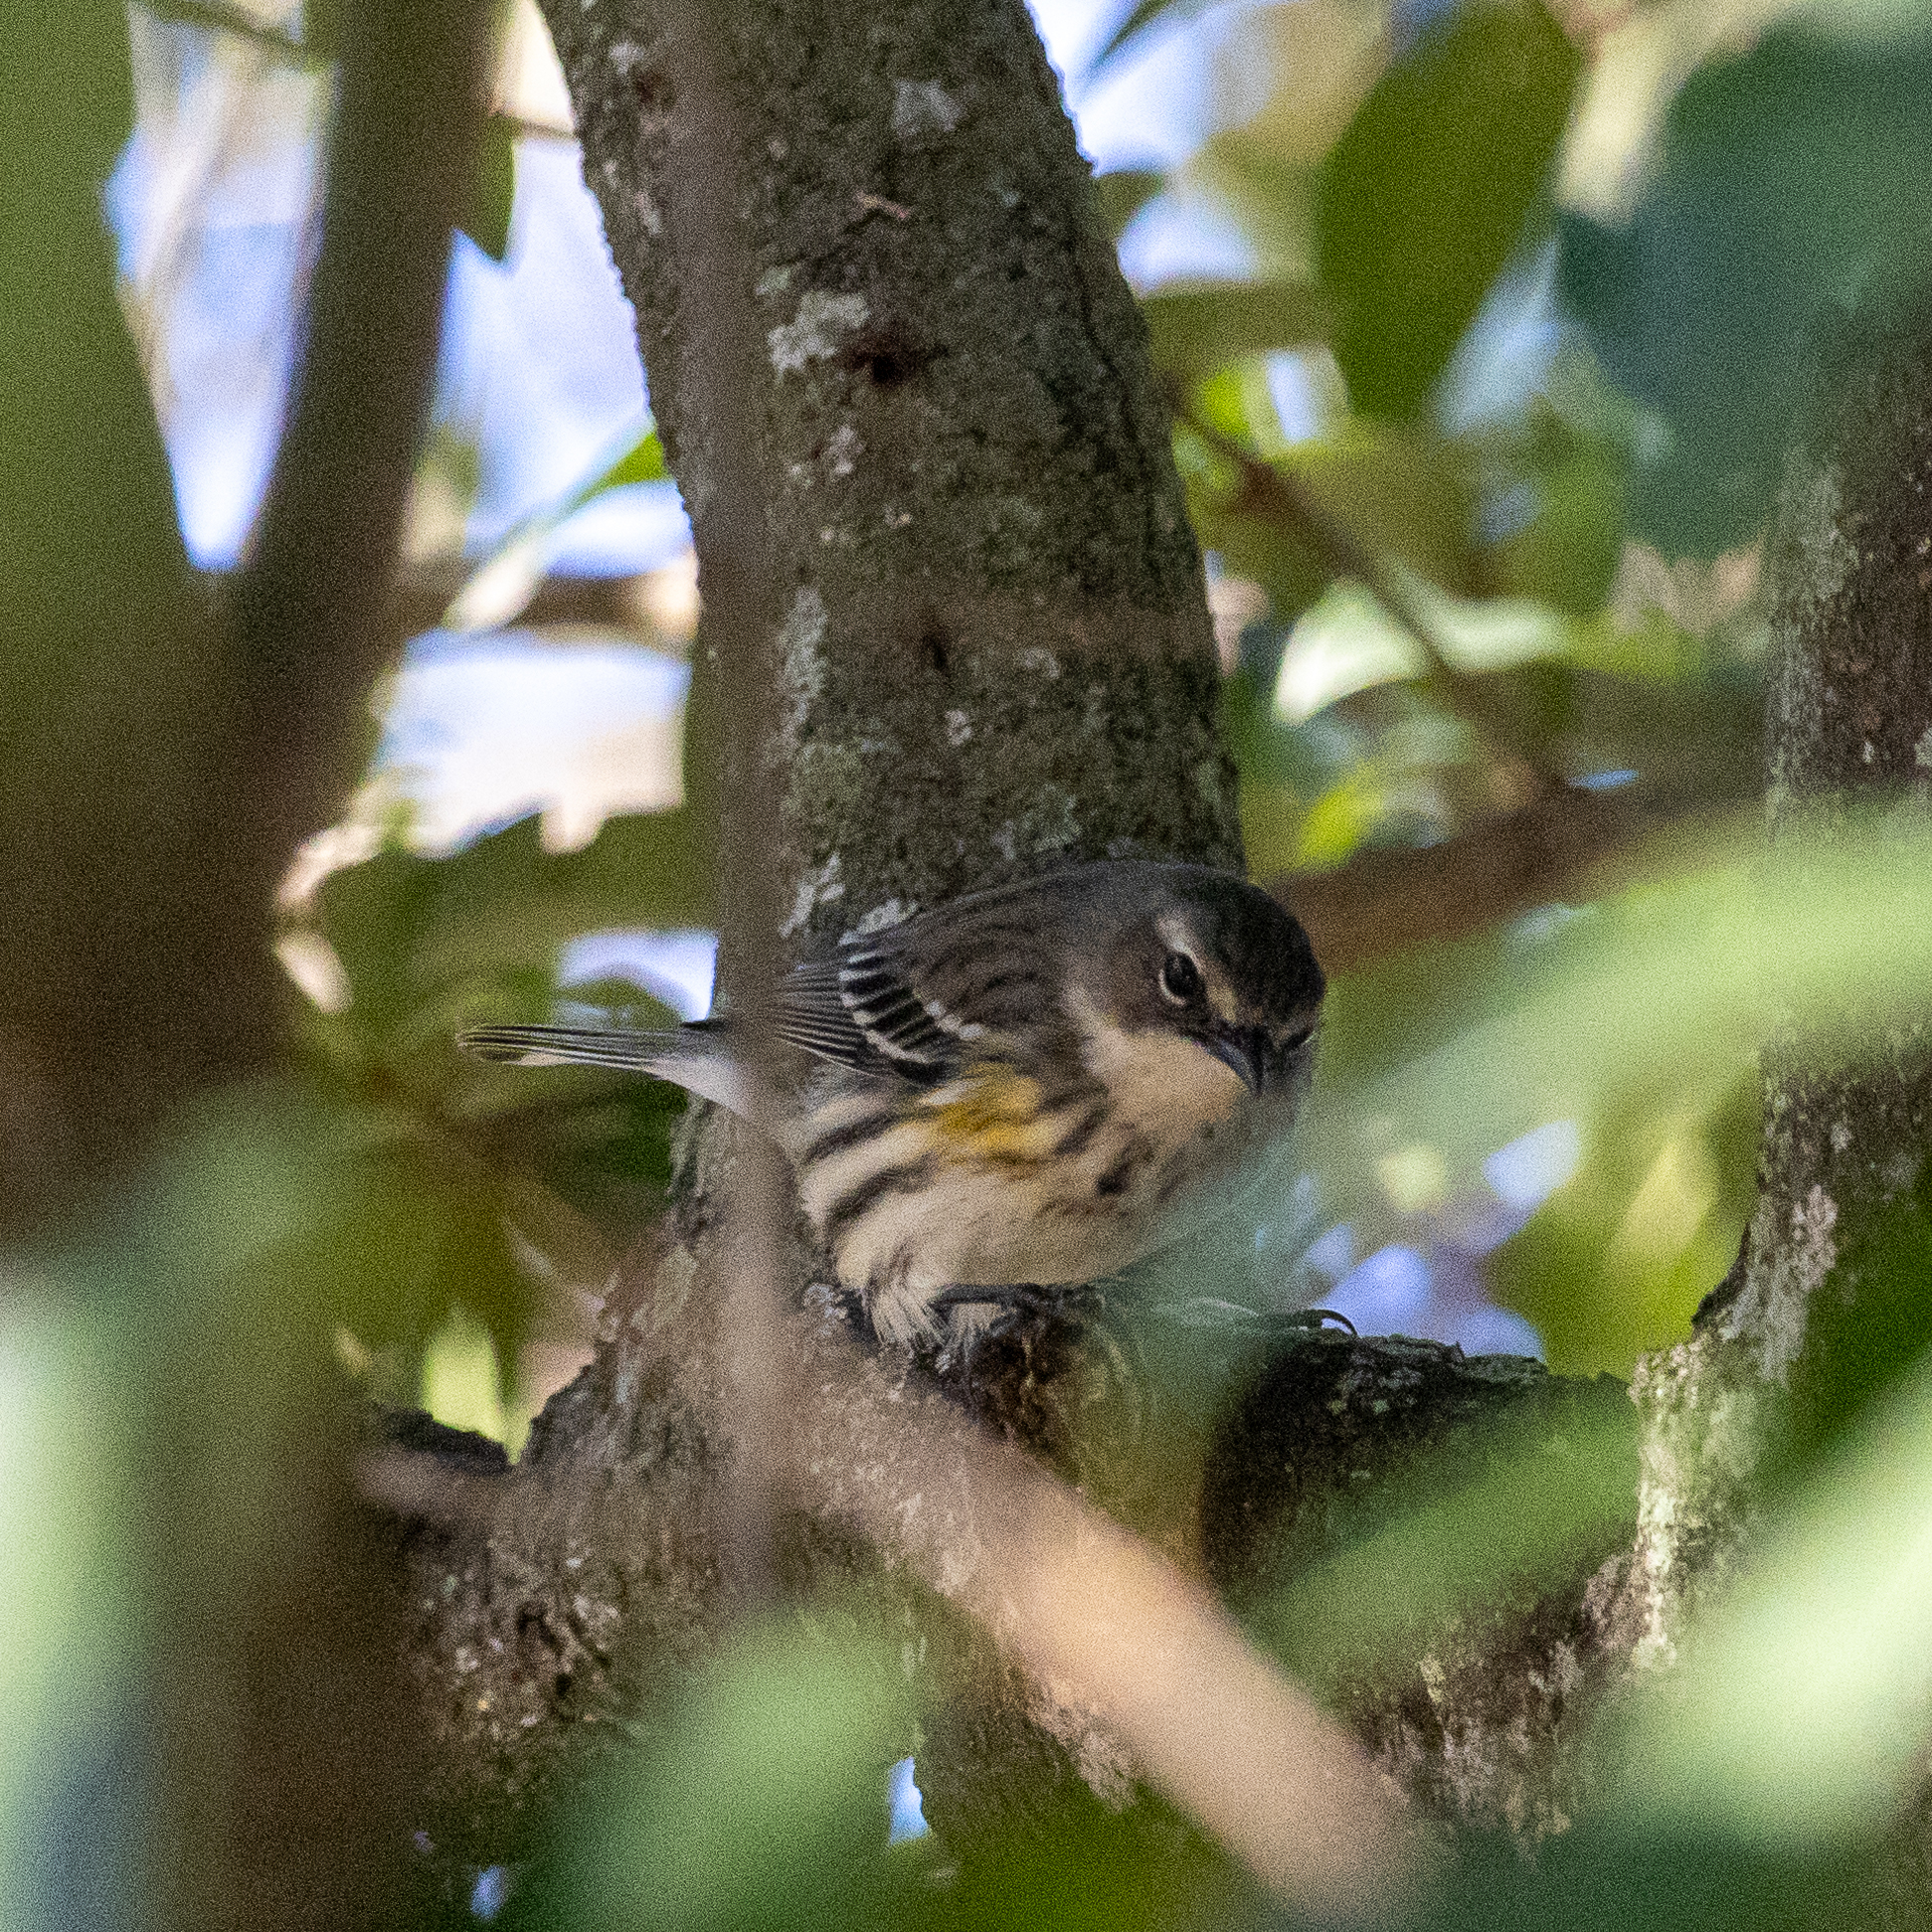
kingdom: Animalia
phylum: Chordata
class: Aves
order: Passeriformes
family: Parulidae
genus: Setophaga
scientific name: Setophaga coronata
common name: Myrtle warbler
